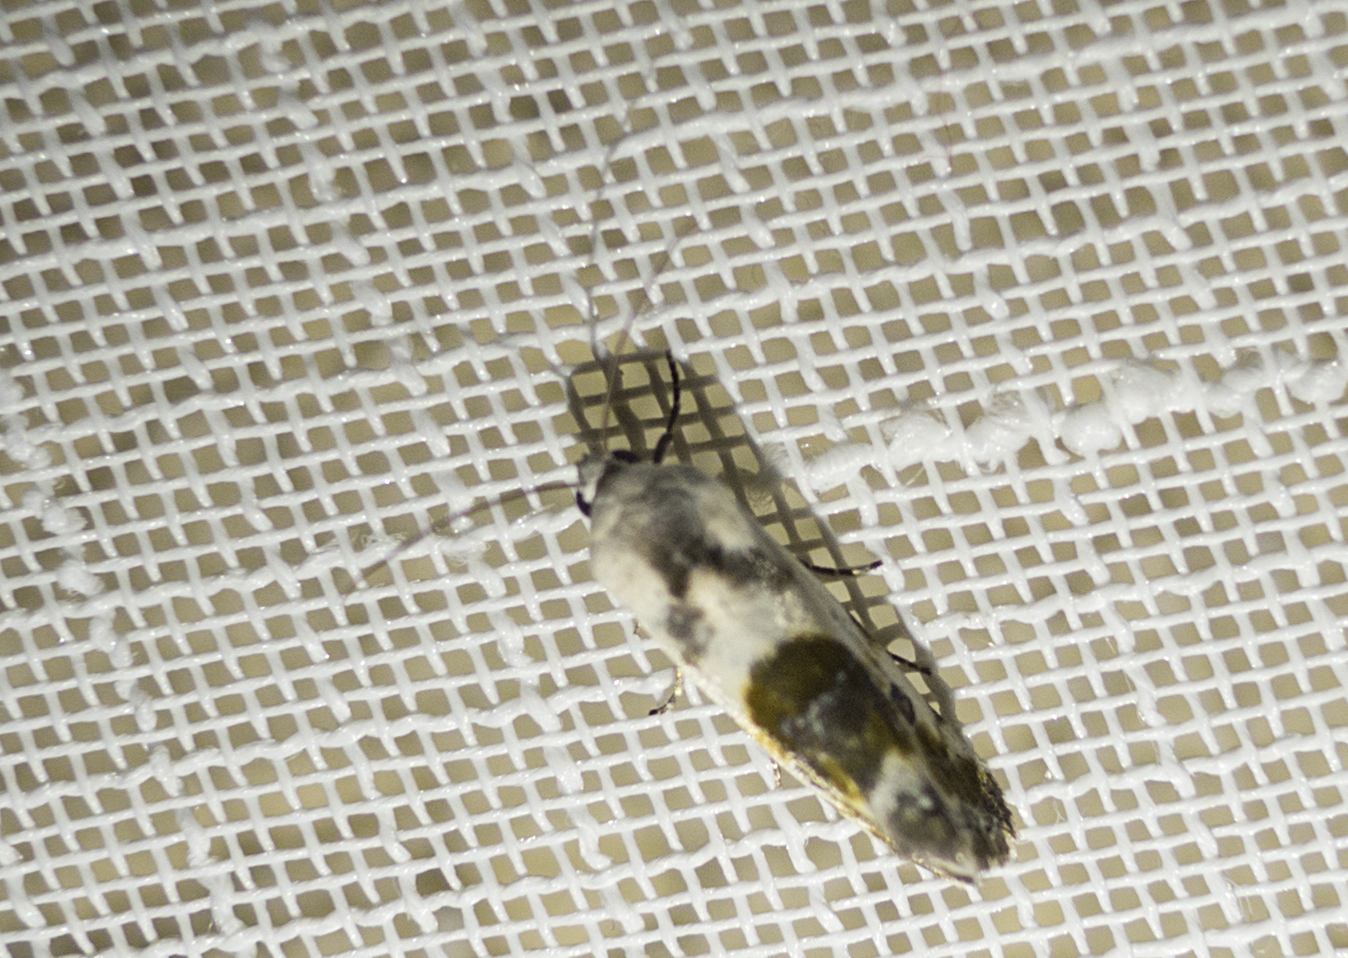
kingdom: Animalia
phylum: Arthropoda
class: Insecta
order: Lepidoptera
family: Noctuidae
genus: Acontia
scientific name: Acontia candefacta
